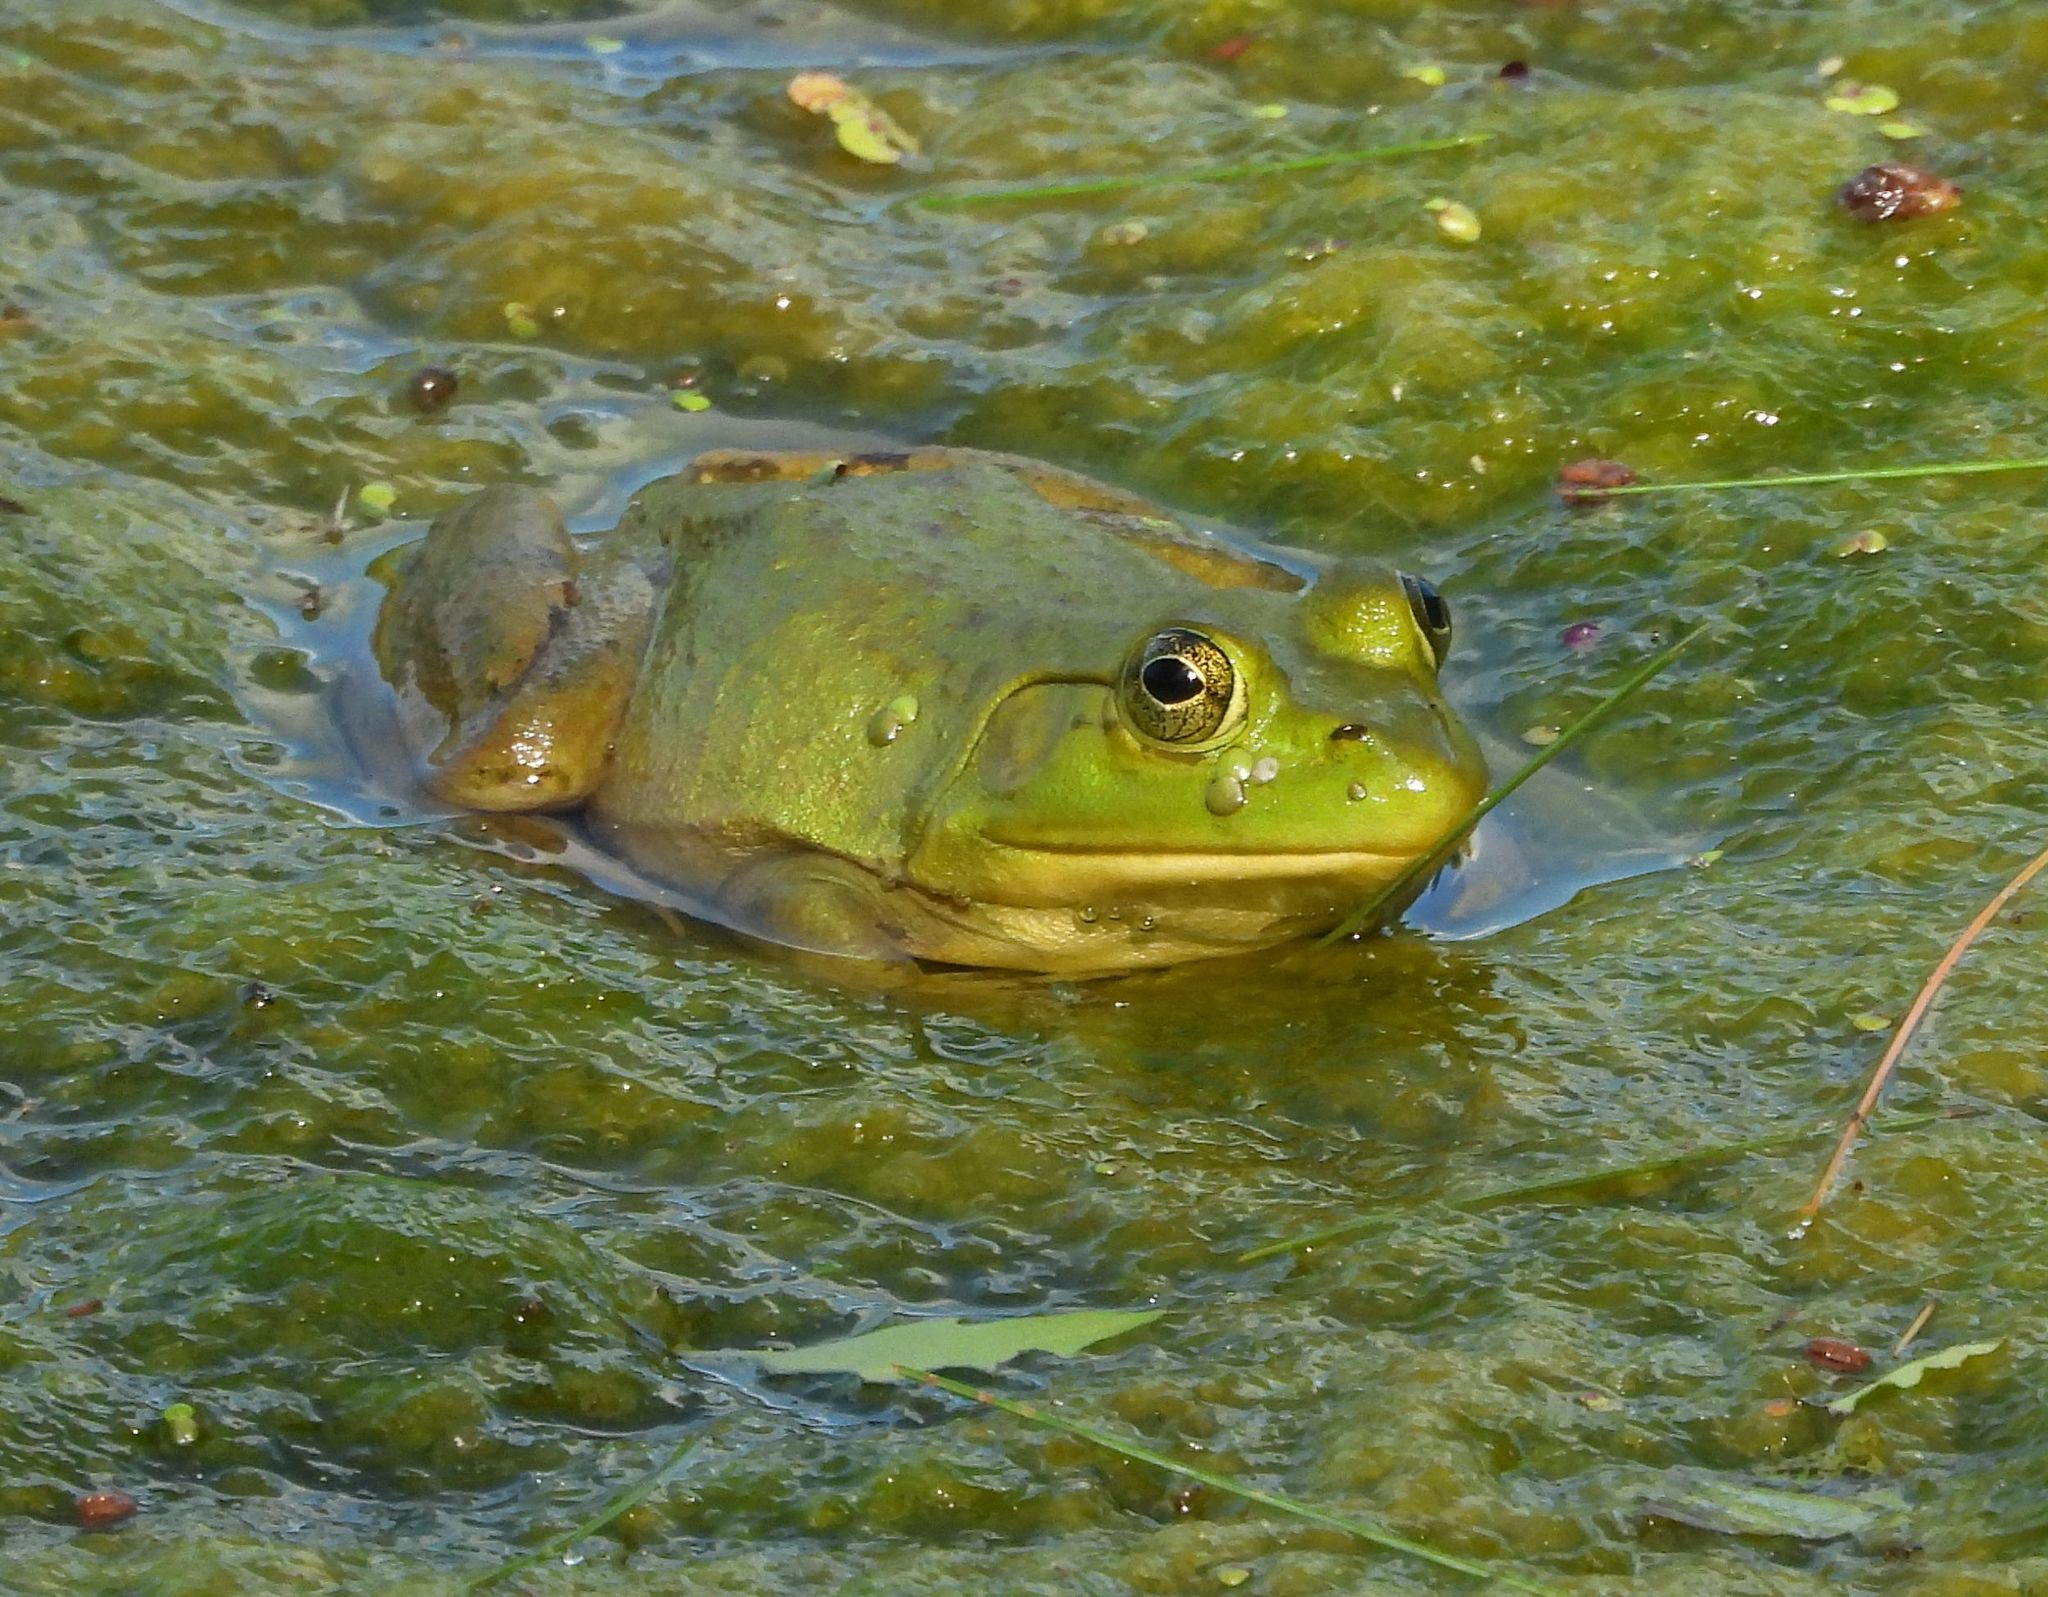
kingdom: Animalia
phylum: Chordata
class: Amphibia
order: Anura
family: Ranidae
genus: Lithobates
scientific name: Lithobates catesbeianus
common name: American bullfrog
